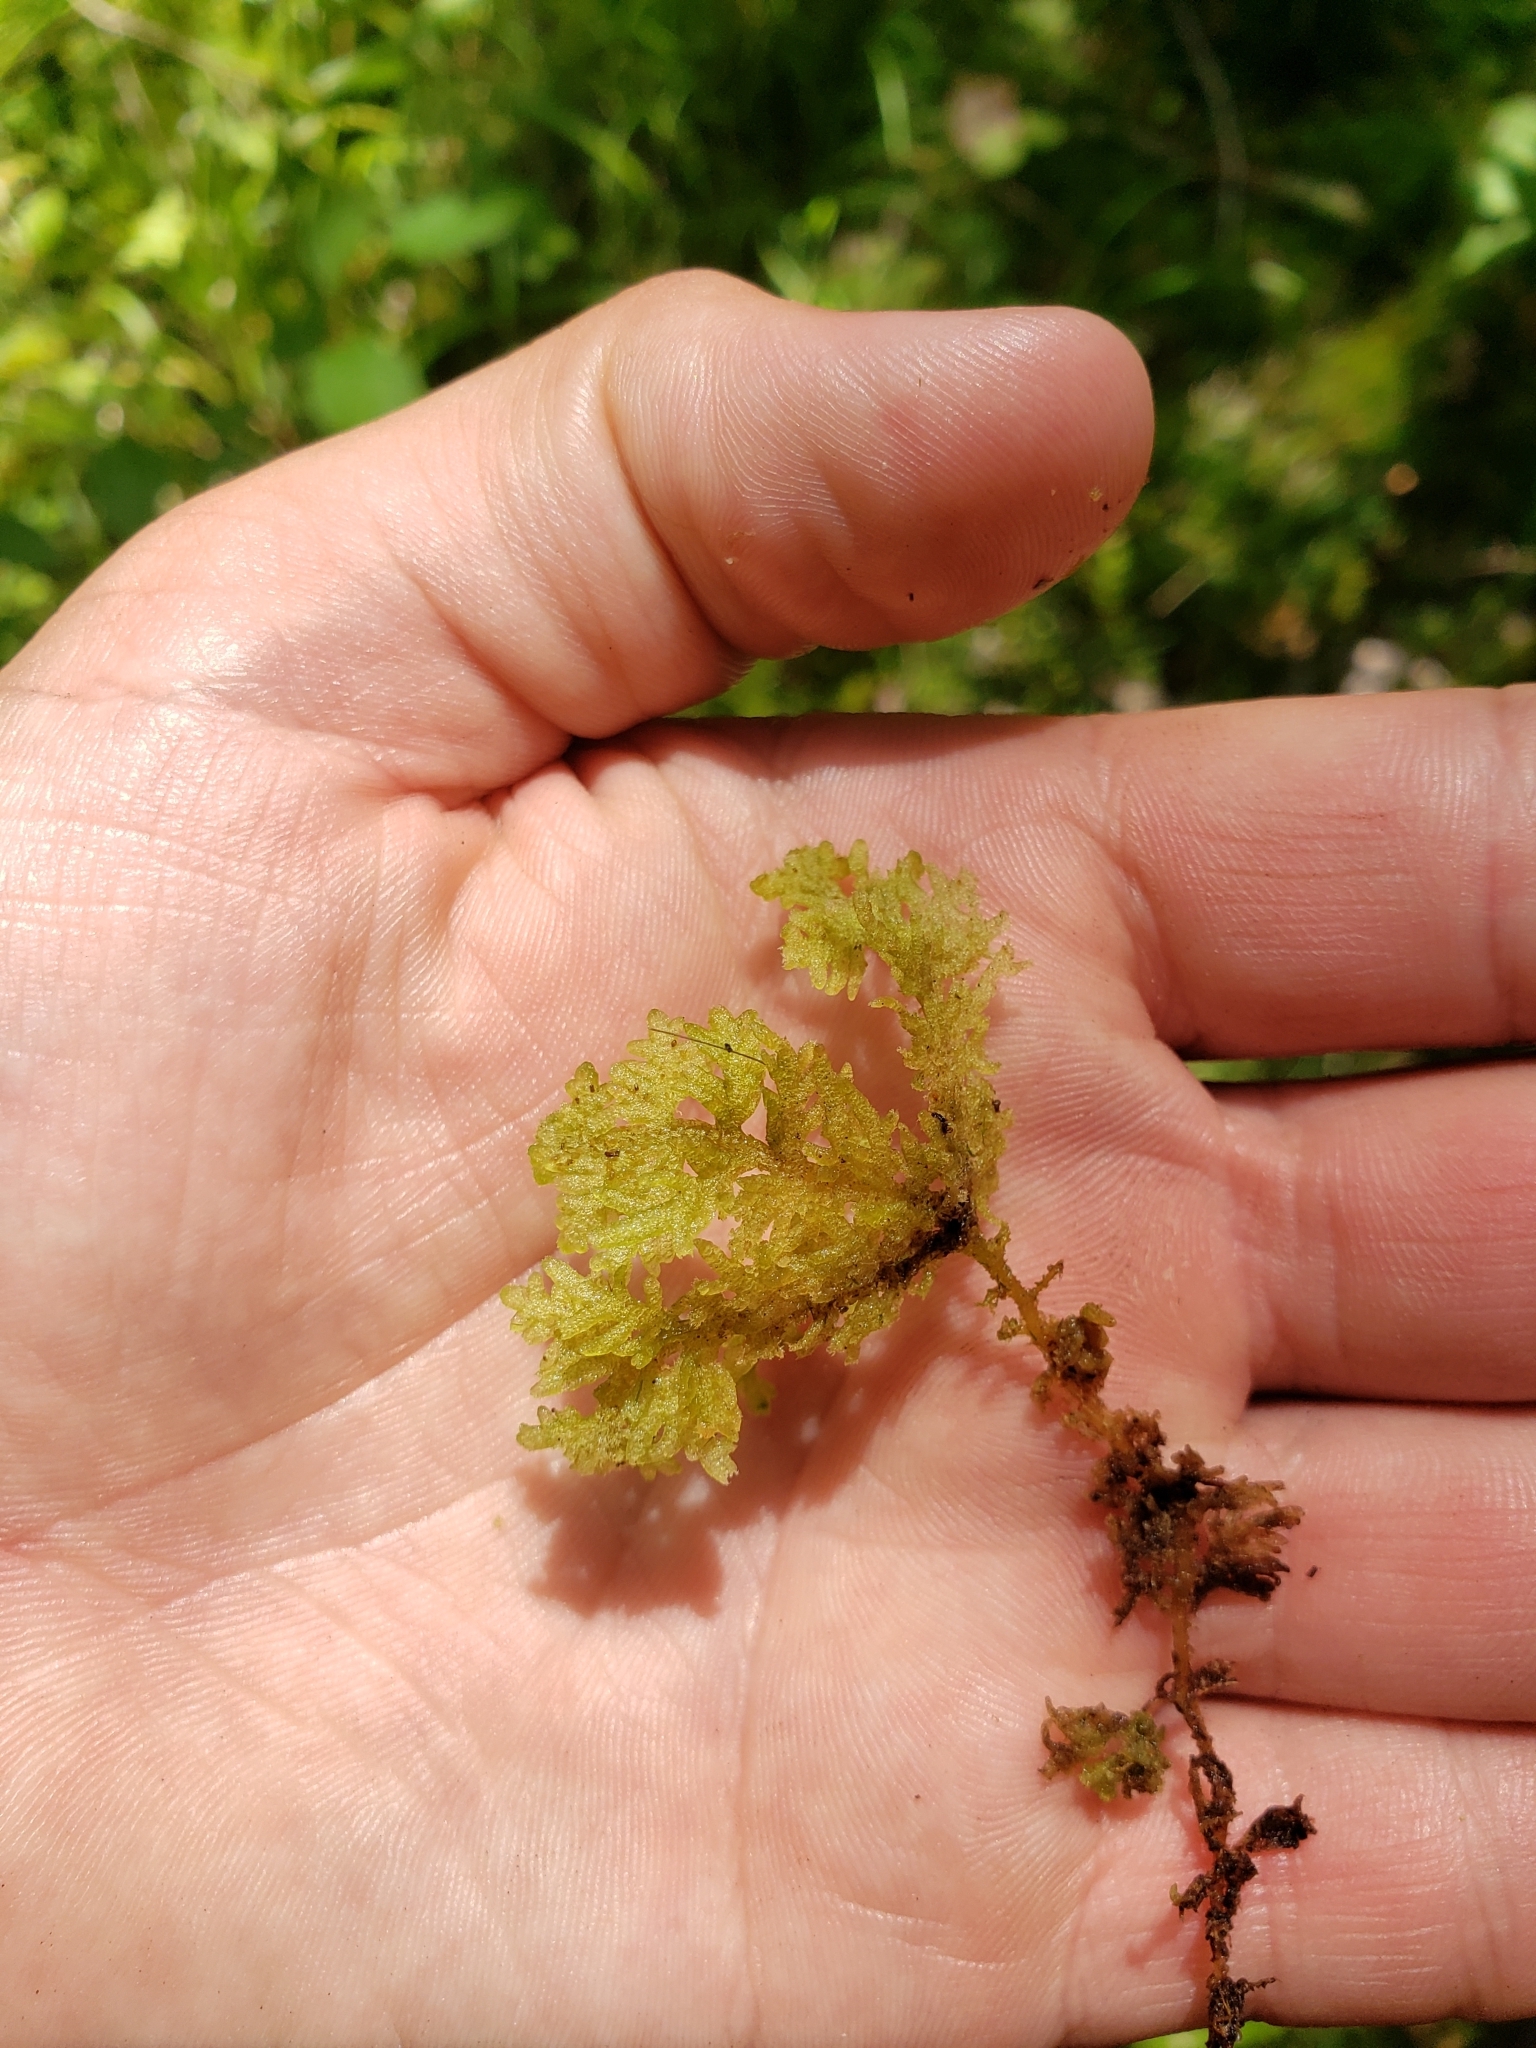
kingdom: Plantae
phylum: Marchantiophyta
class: Jungermanniopsida
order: Jungermanniales
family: Trichocoleaceae
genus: Trichocolea
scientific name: Trichocolea tomentella
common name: Woolly liverwort
